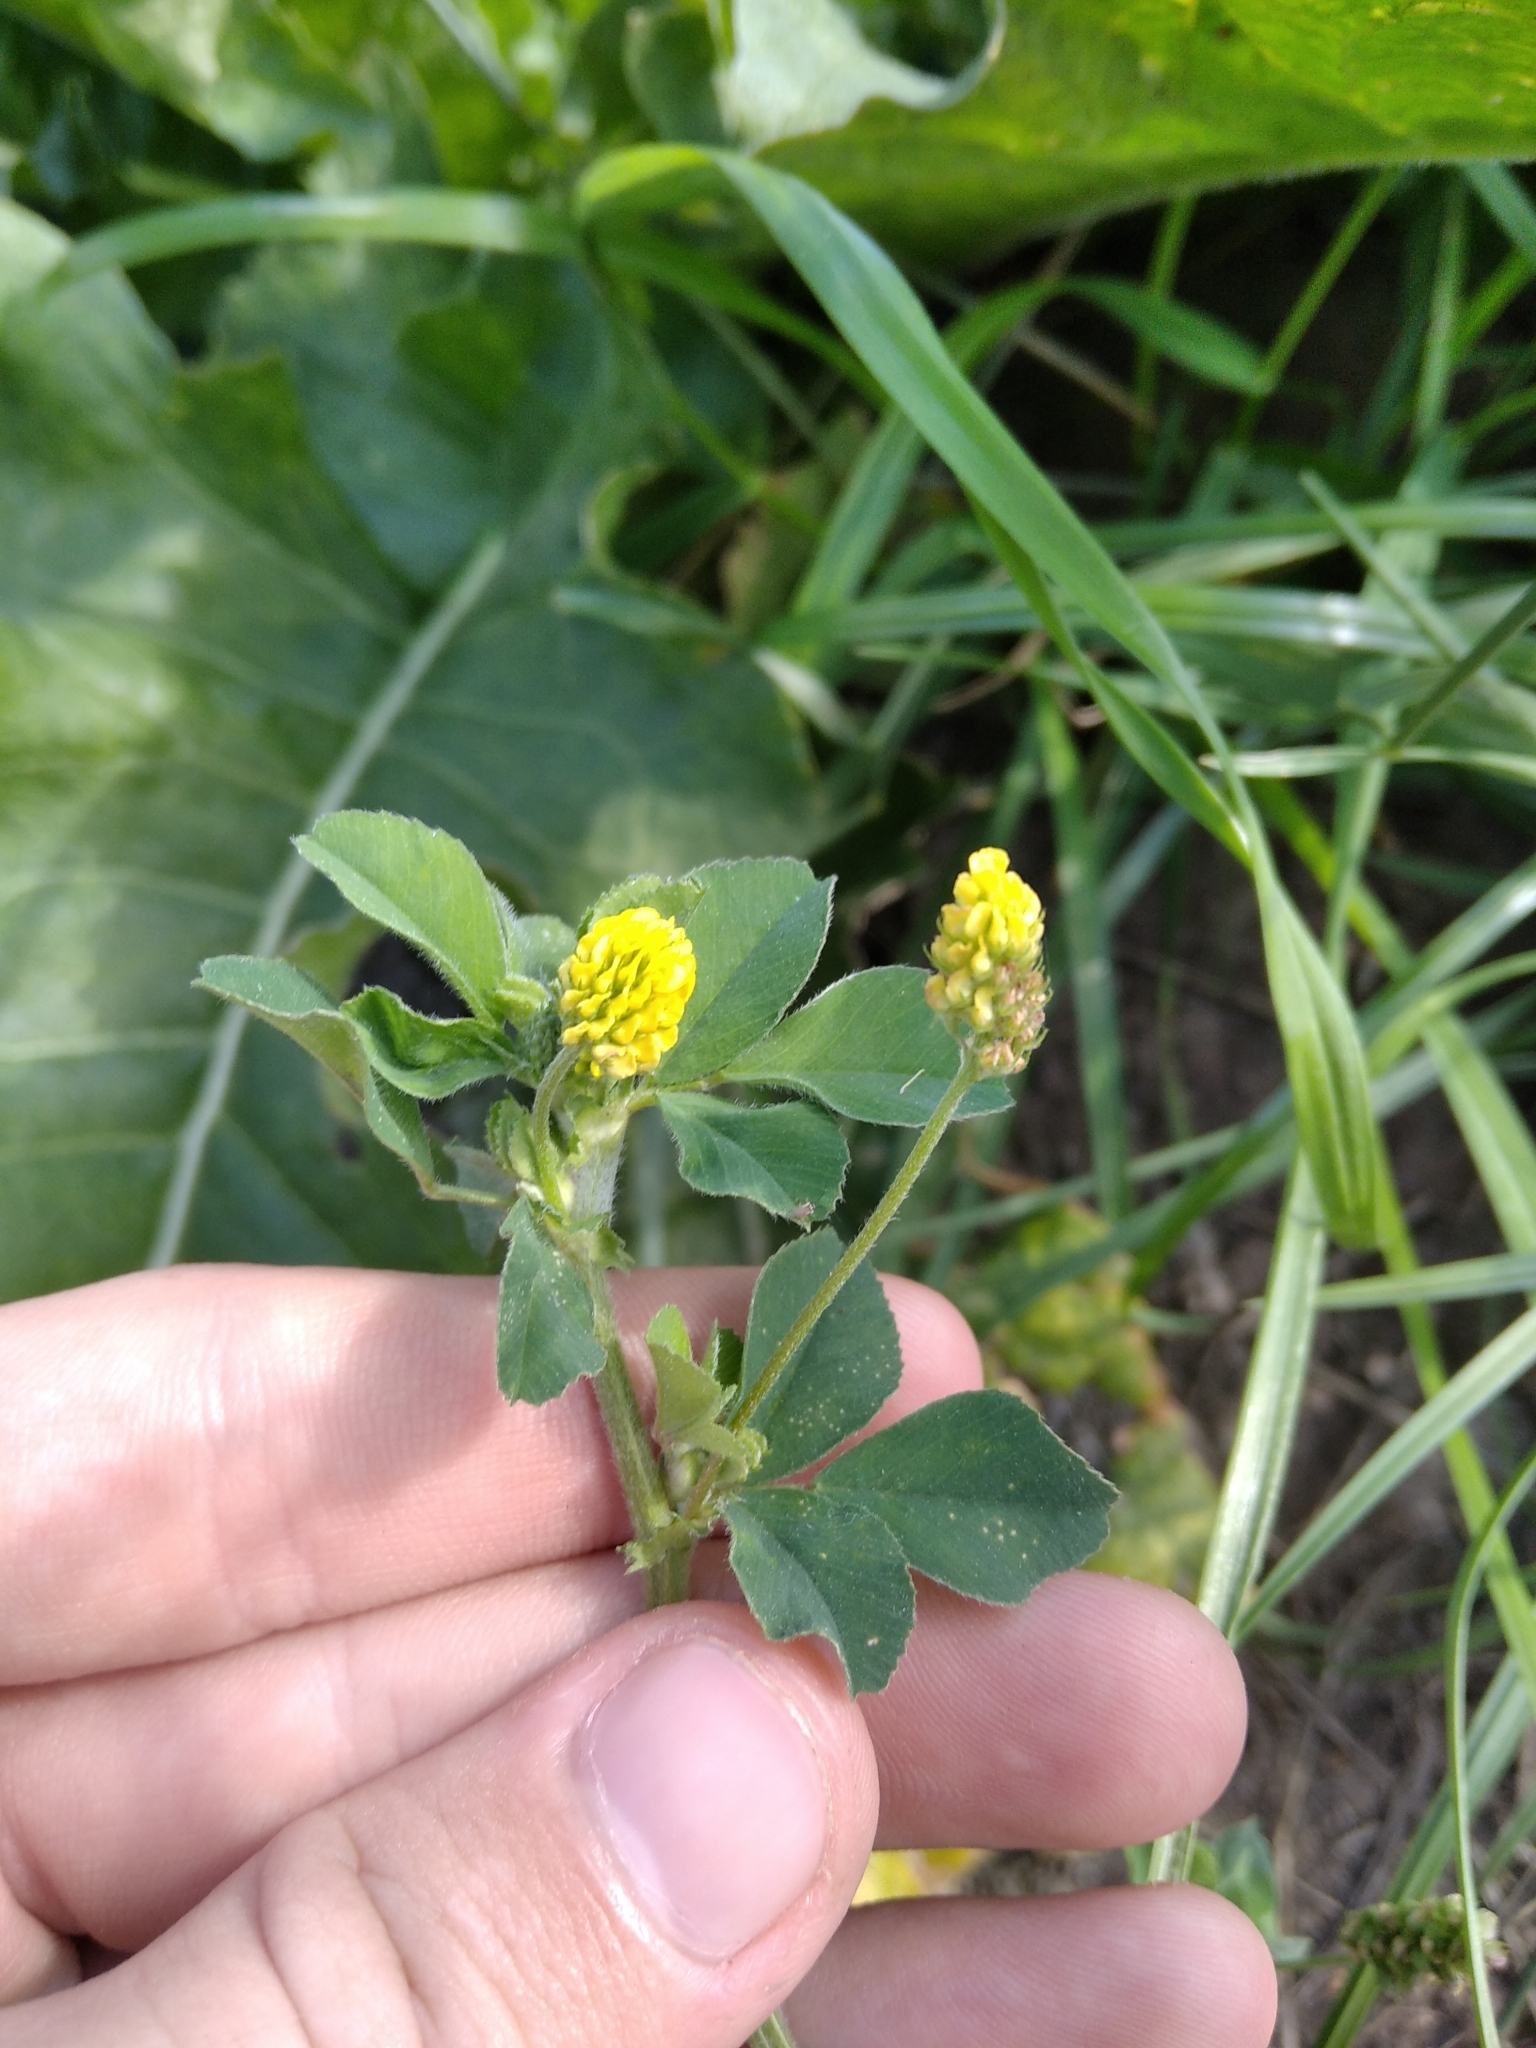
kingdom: Plantae
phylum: Tracheophyta
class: Magnoliopsida
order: Fabales
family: Fabaceae
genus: Medicago
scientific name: Medicago lupulina
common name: Black medick
